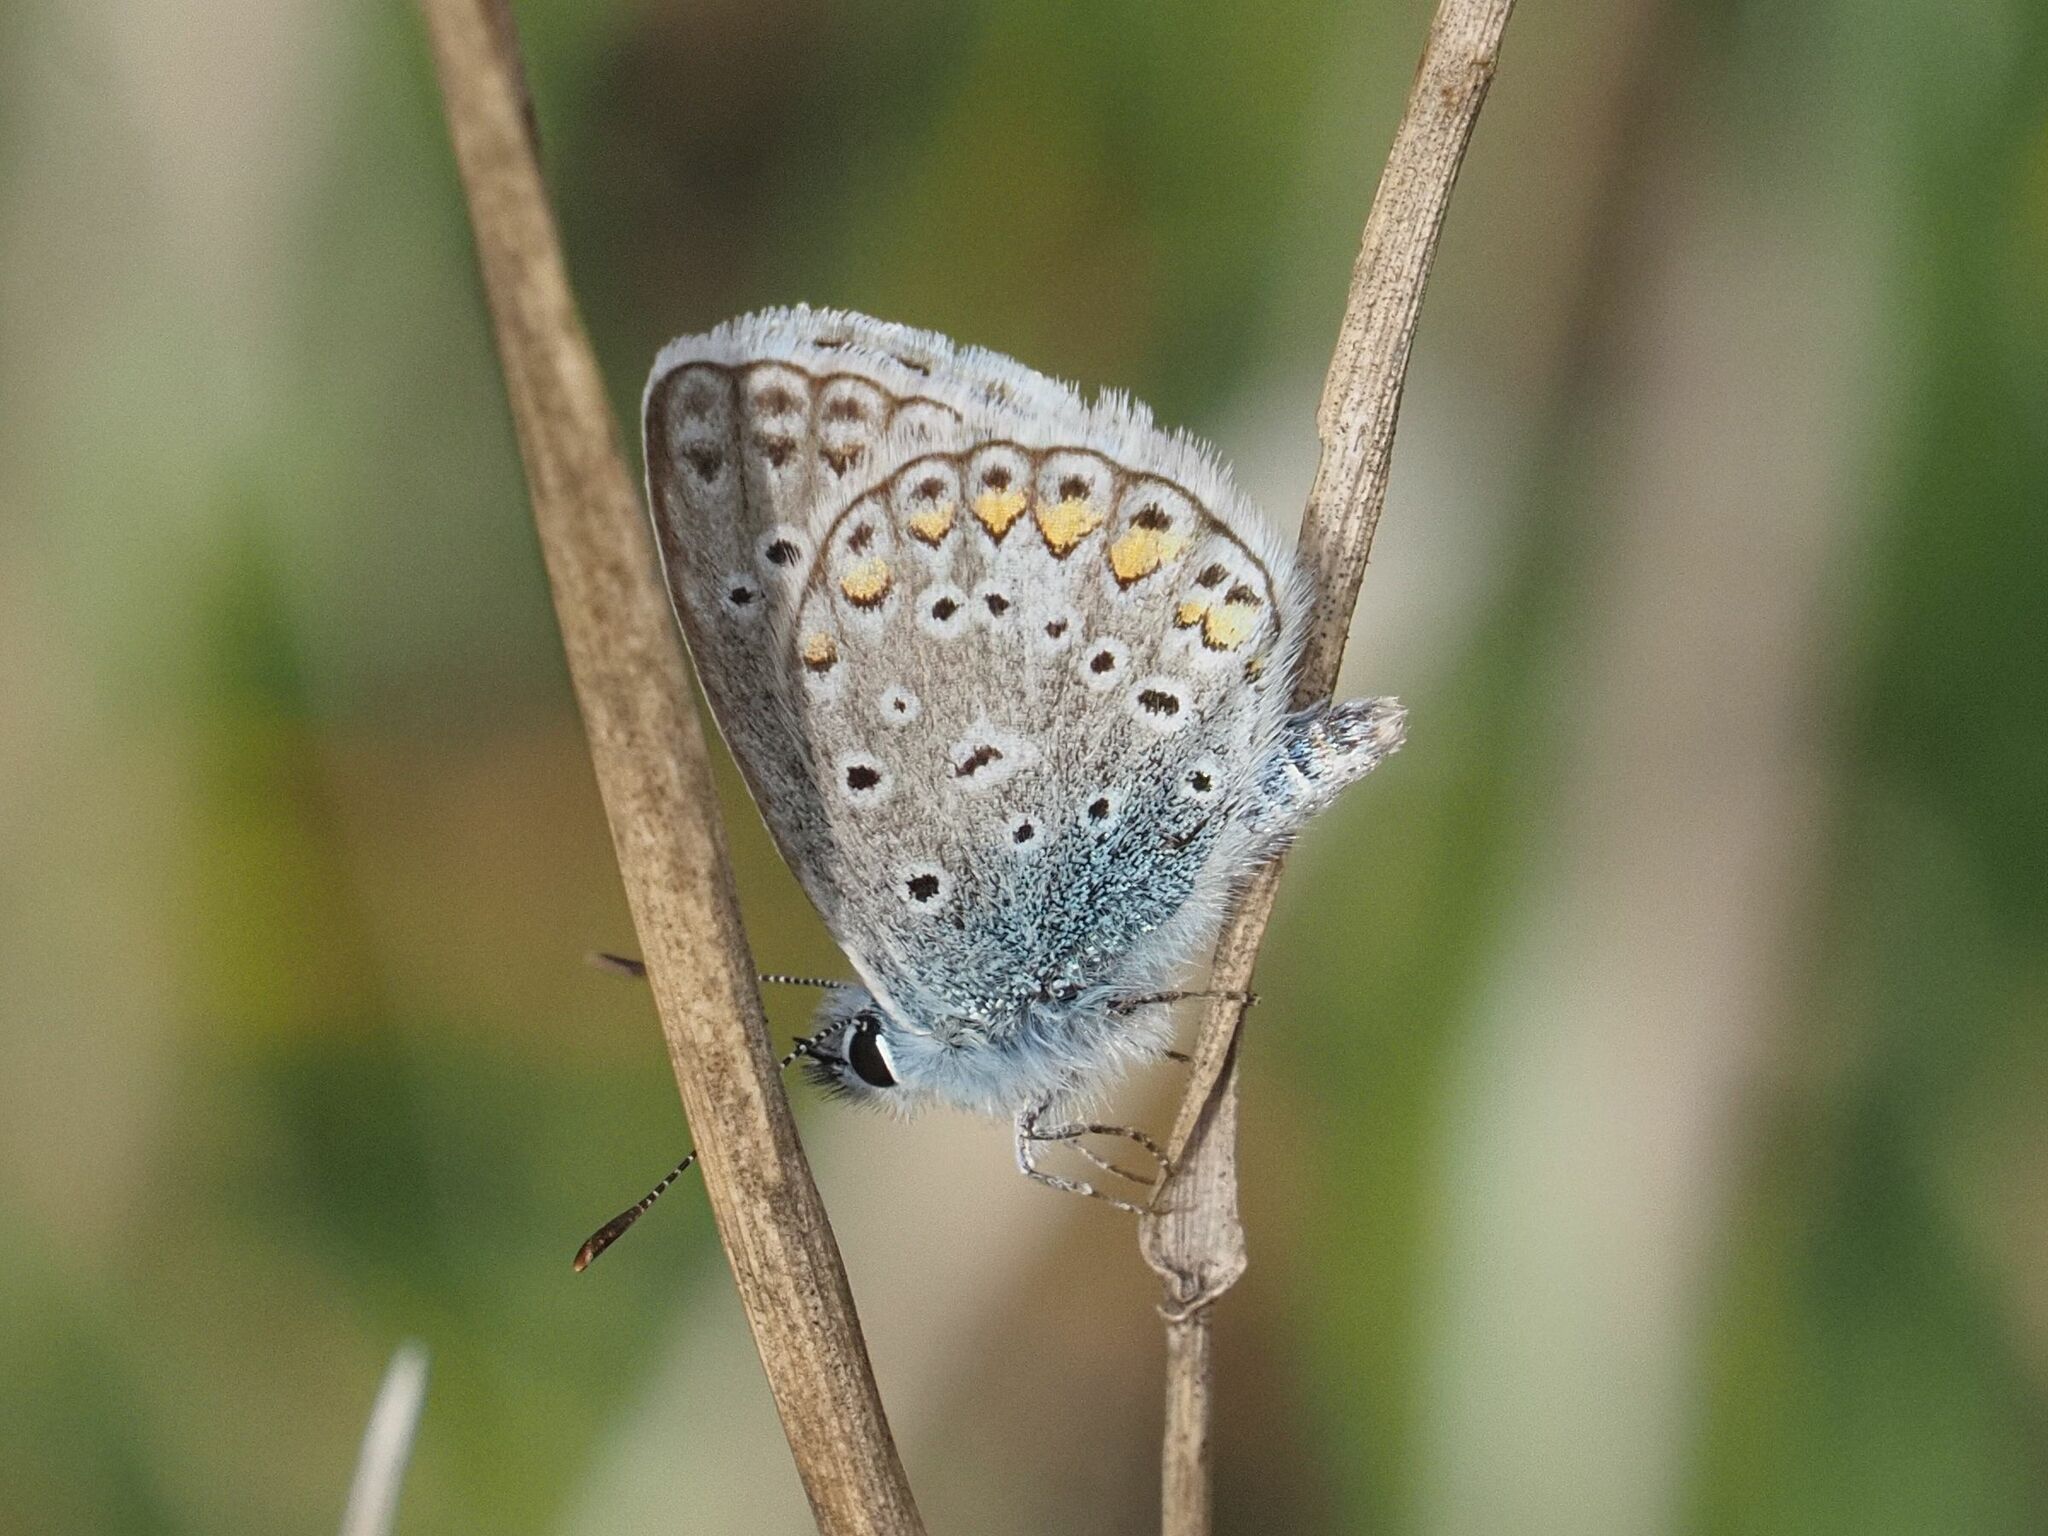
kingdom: Animalia
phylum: Arthropoda
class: Insecta
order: Lepidoptera
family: Lycaenidae
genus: Polyommatus
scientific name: Polyommatus icarus
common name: Common blue
